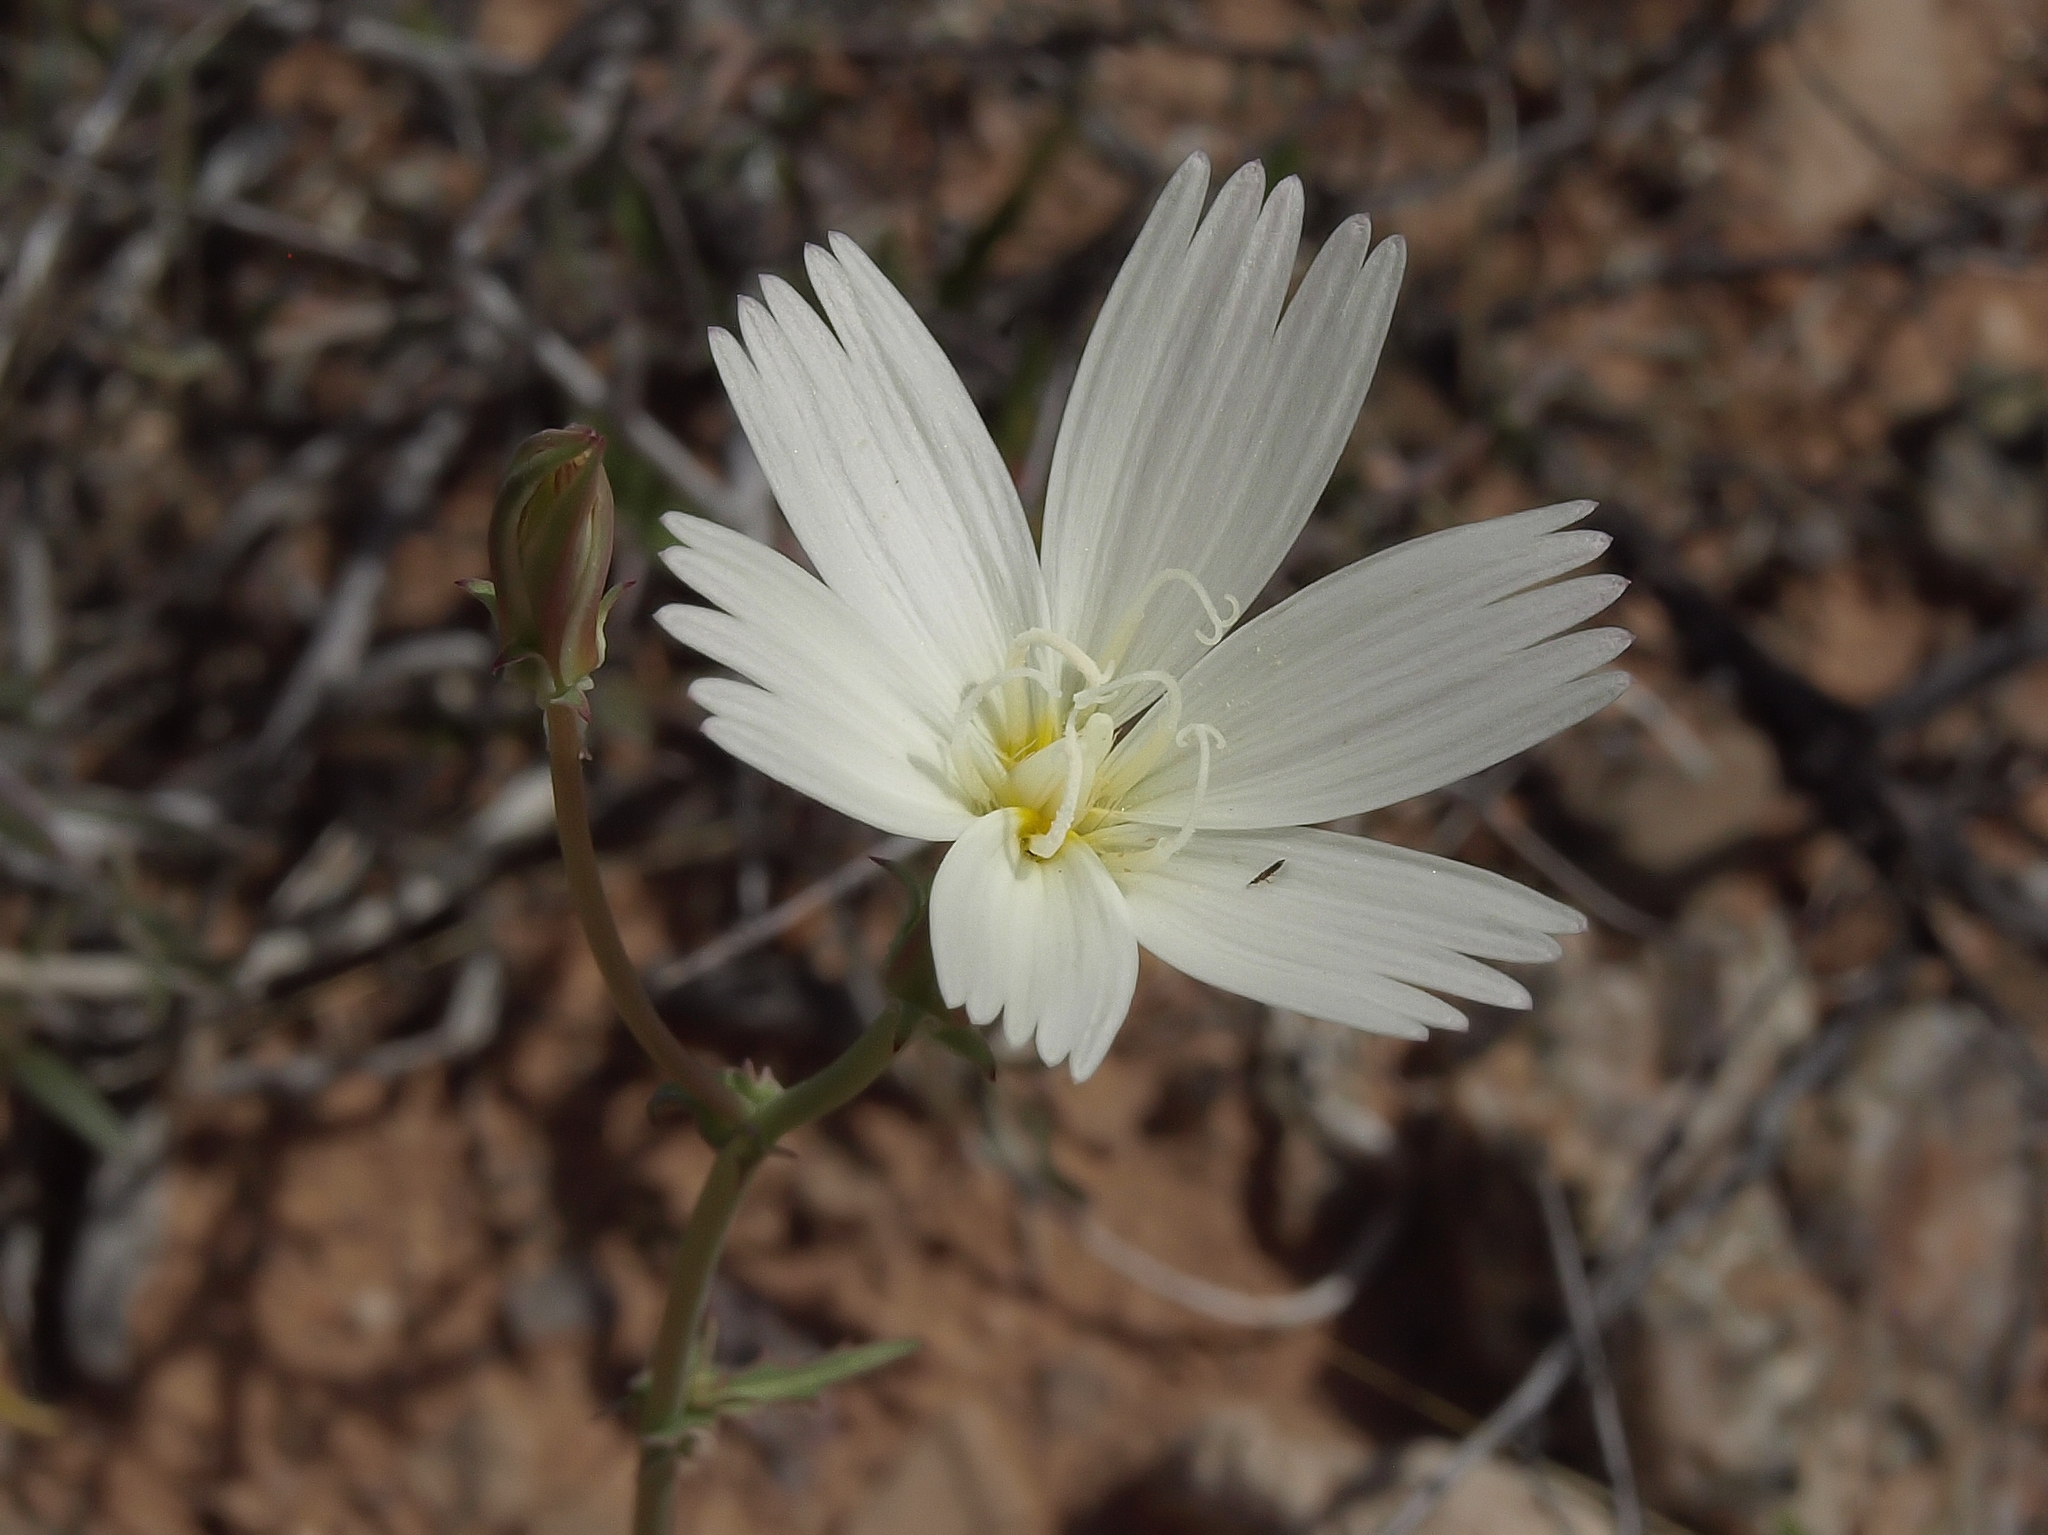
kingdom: Plantae
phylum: Tracheophyta
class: Magnoliopsida
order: Asterales
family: Asteraceae
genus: Rafinesquia
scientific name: Rafinesquia neomexicana
